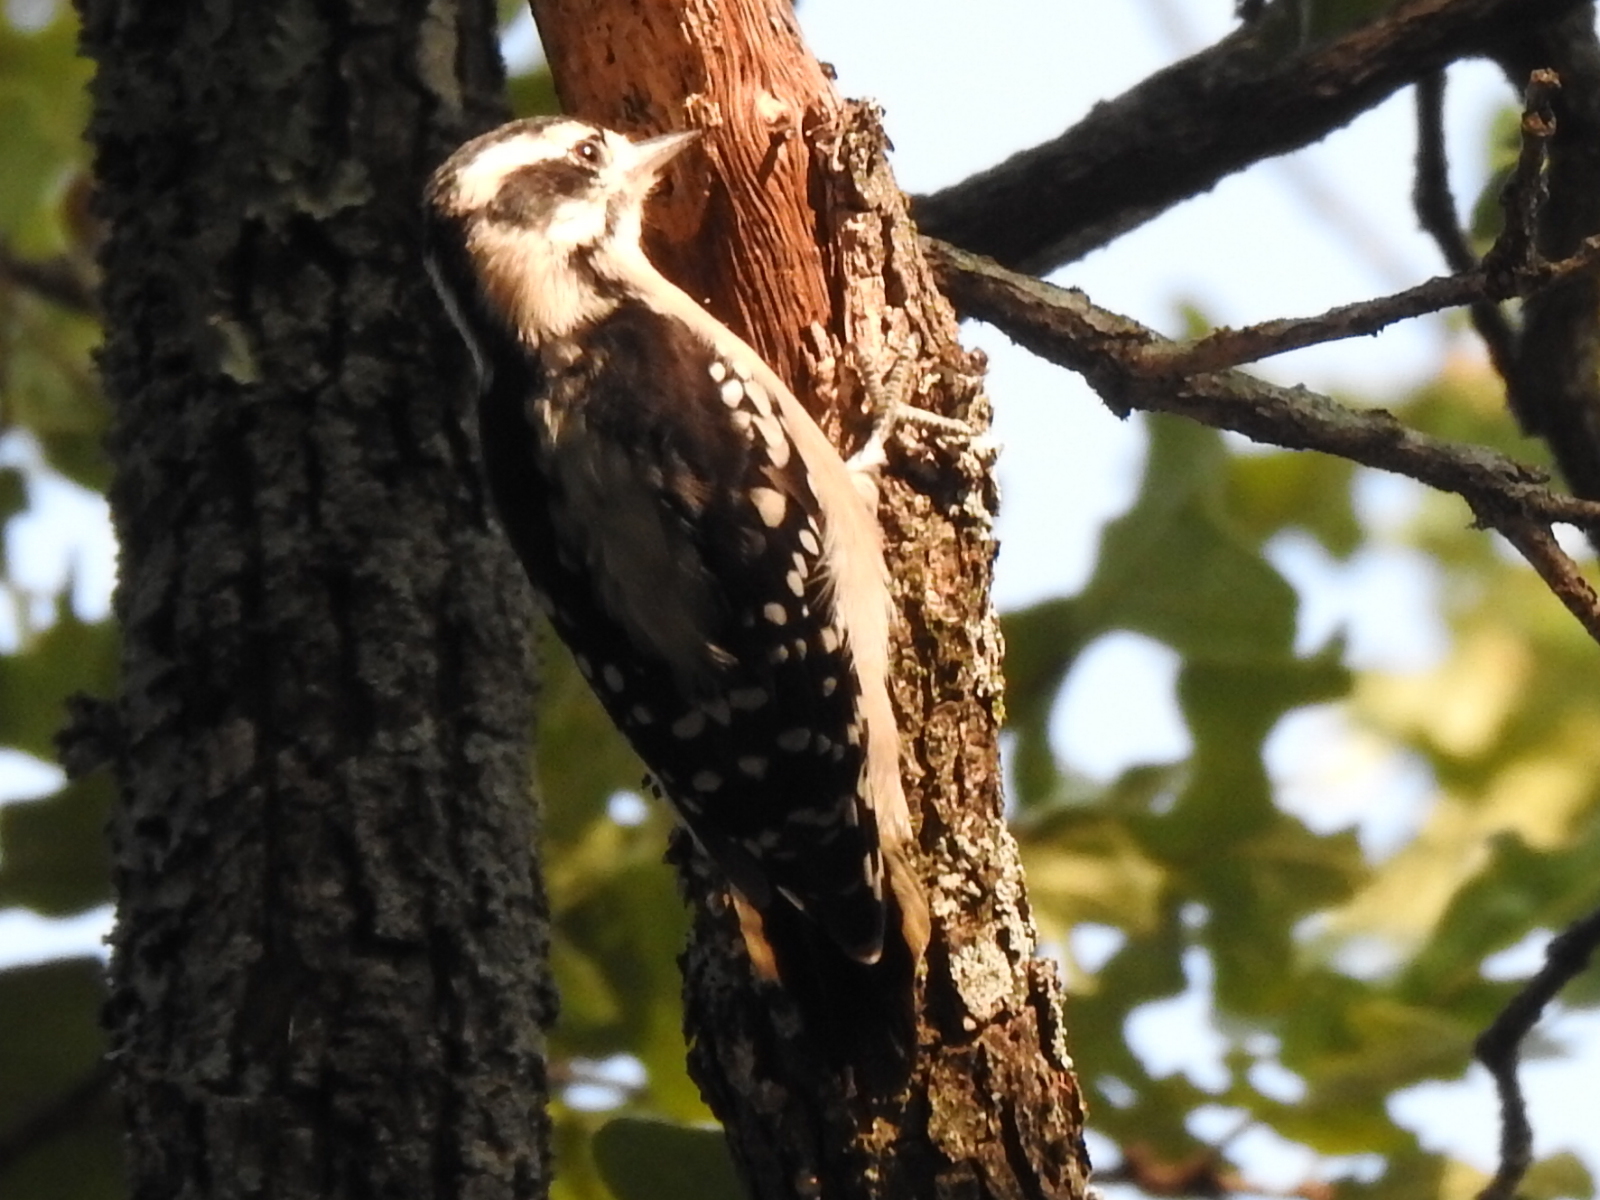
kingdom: Animalia
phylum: Chordata
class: Aves
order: Piciformes
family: Picidae
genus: Dryobates
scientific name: Dryobates pubescens
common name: Downy woodpecker
